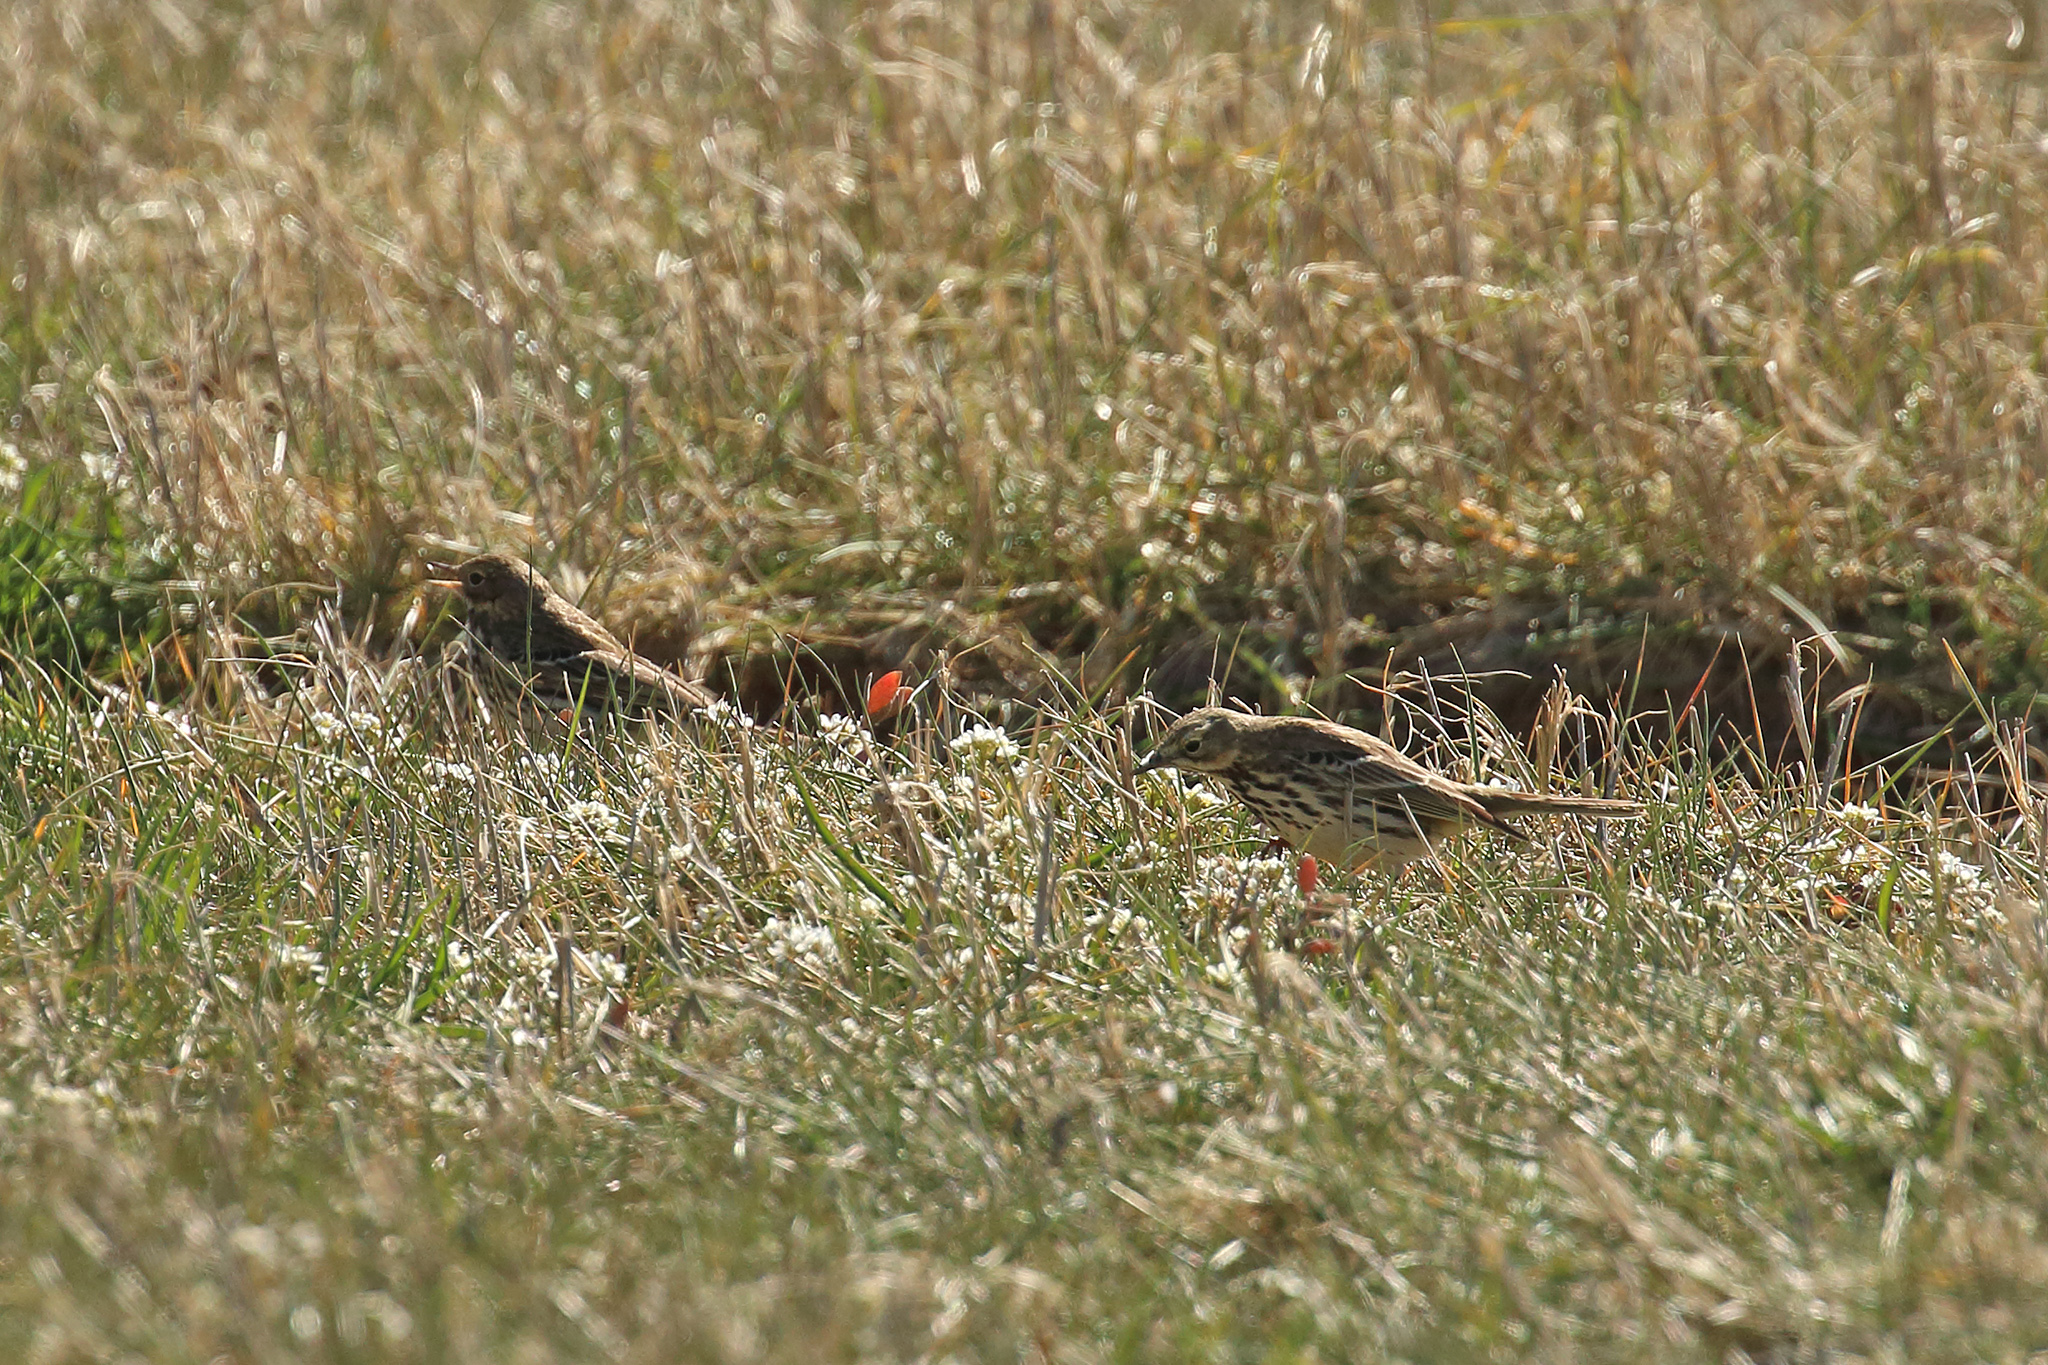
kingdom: Animalia
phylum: Chordata
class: Aves
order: Passeriformes
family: Motacillidae
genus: Anthus
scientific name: Anthus pratensis
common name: Meadow pipit
